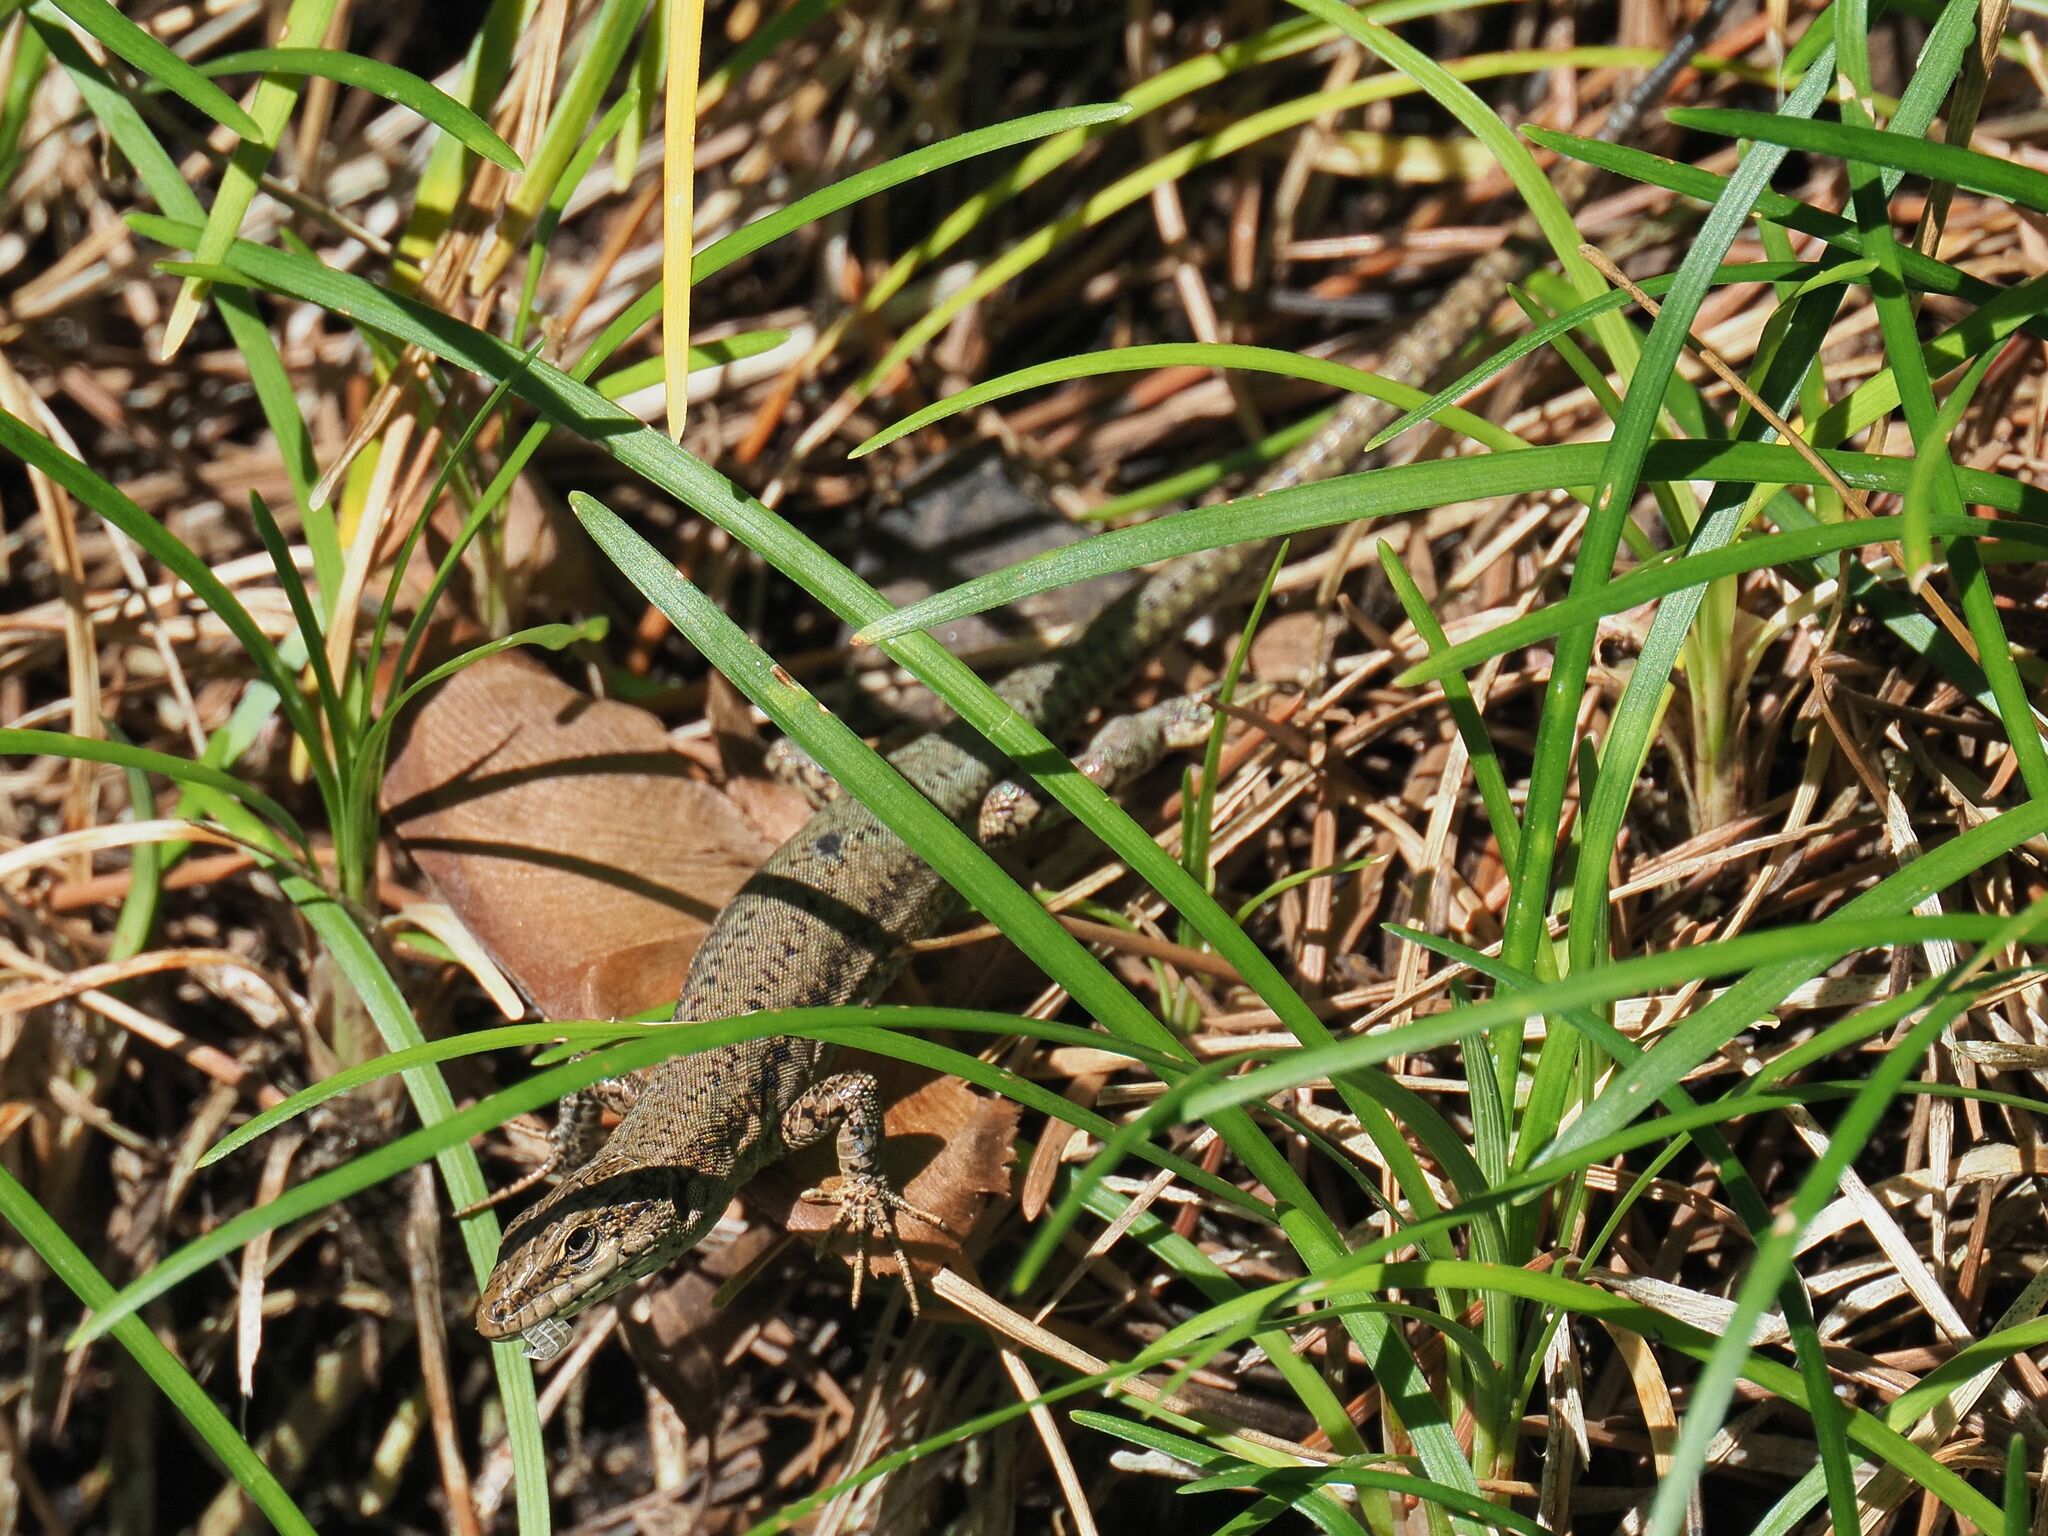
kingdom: Animalia
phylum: Chordata
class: Squamata
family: Lacertidae
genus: Podarcis
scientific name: Podarcis virescens
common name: Geniez’s wall lizard
